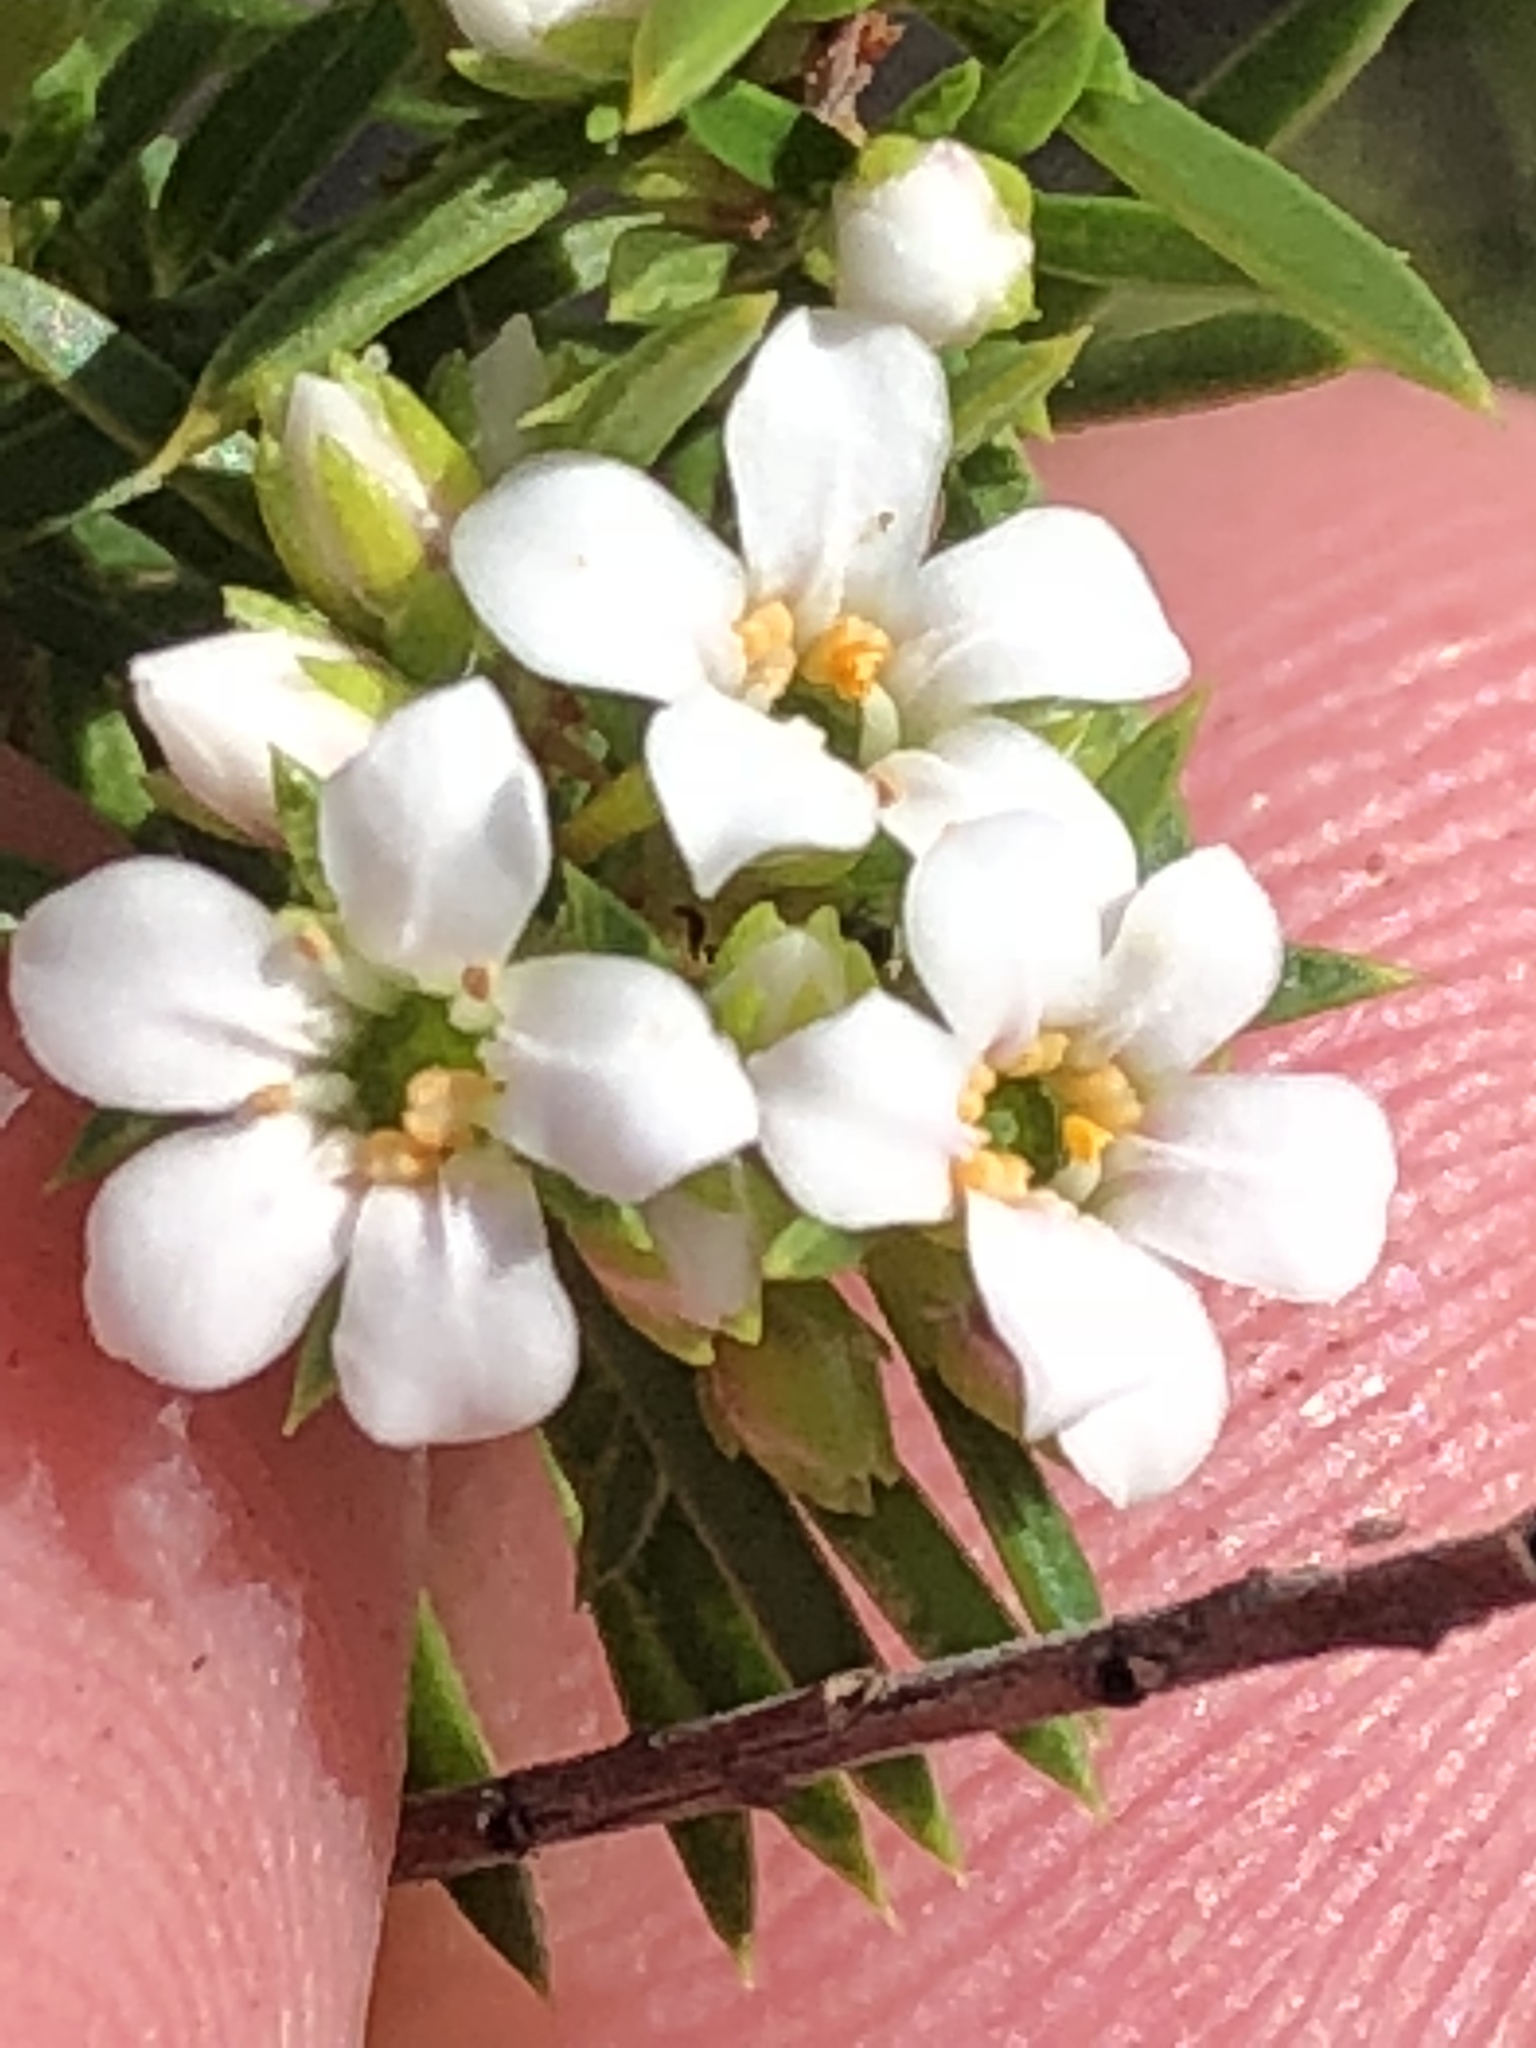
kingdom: Plantae
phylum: Tracheophyta
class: Magnoliopsida
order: Sapindales
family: Rutaceae
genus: Coleonema
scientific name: Coleonema album
